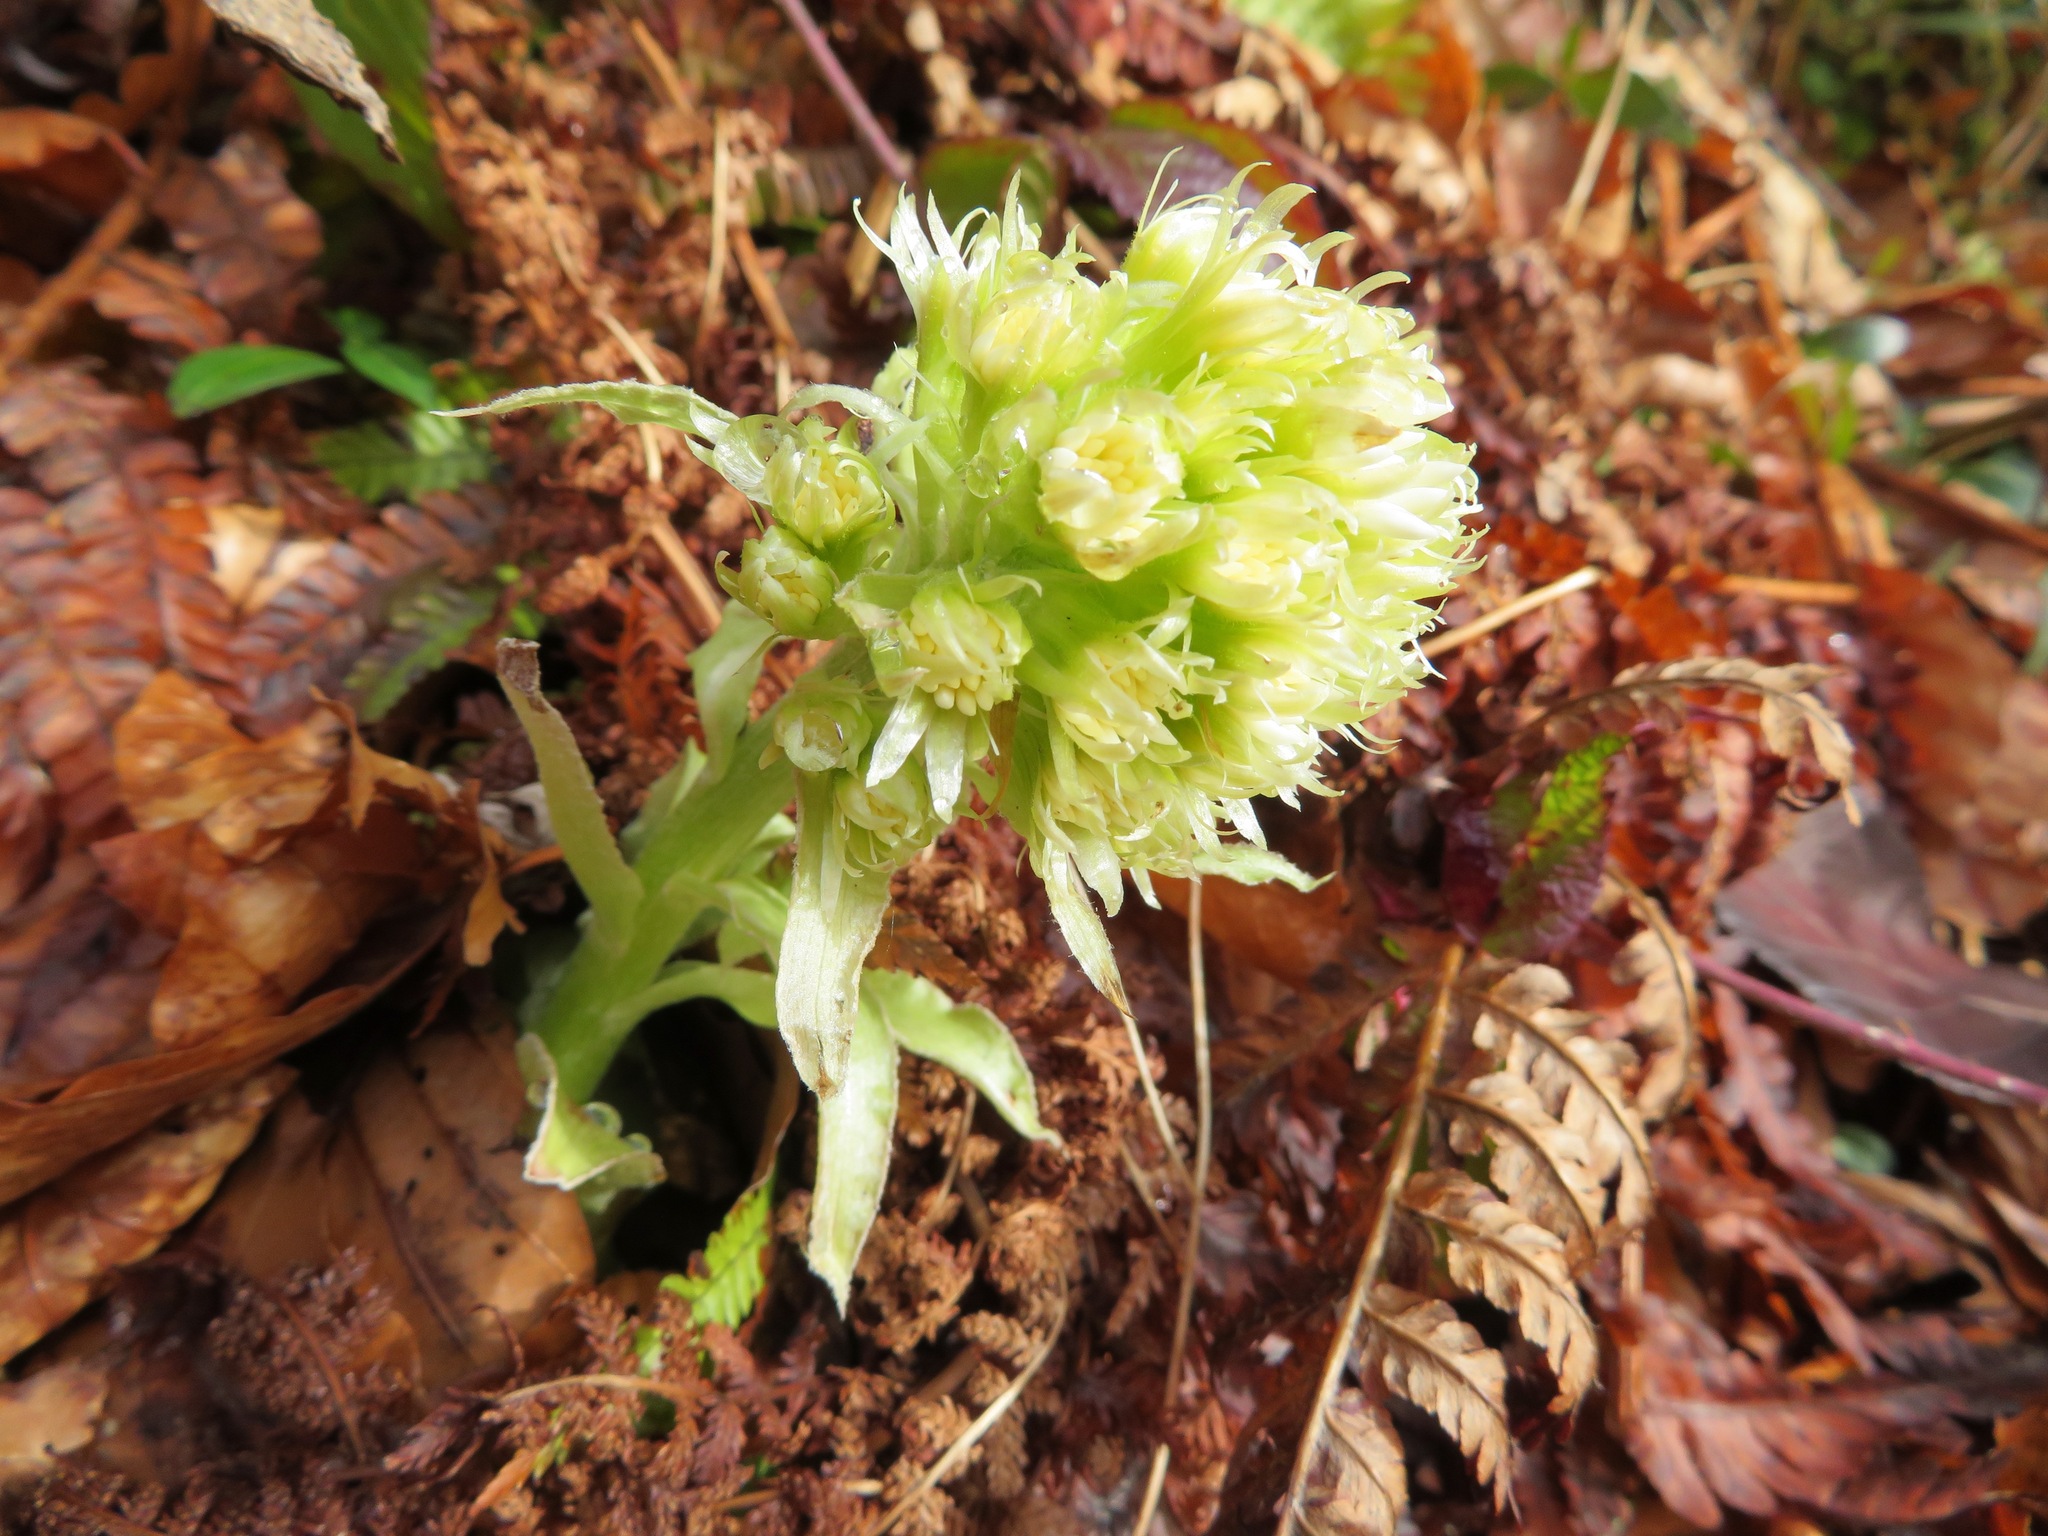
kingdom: Plantae
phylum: Tracheophyta
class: Magnoliopsida
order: Asterales
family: Asteraceae
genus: Petasites
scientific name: Petasites albus
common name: White butterbur
